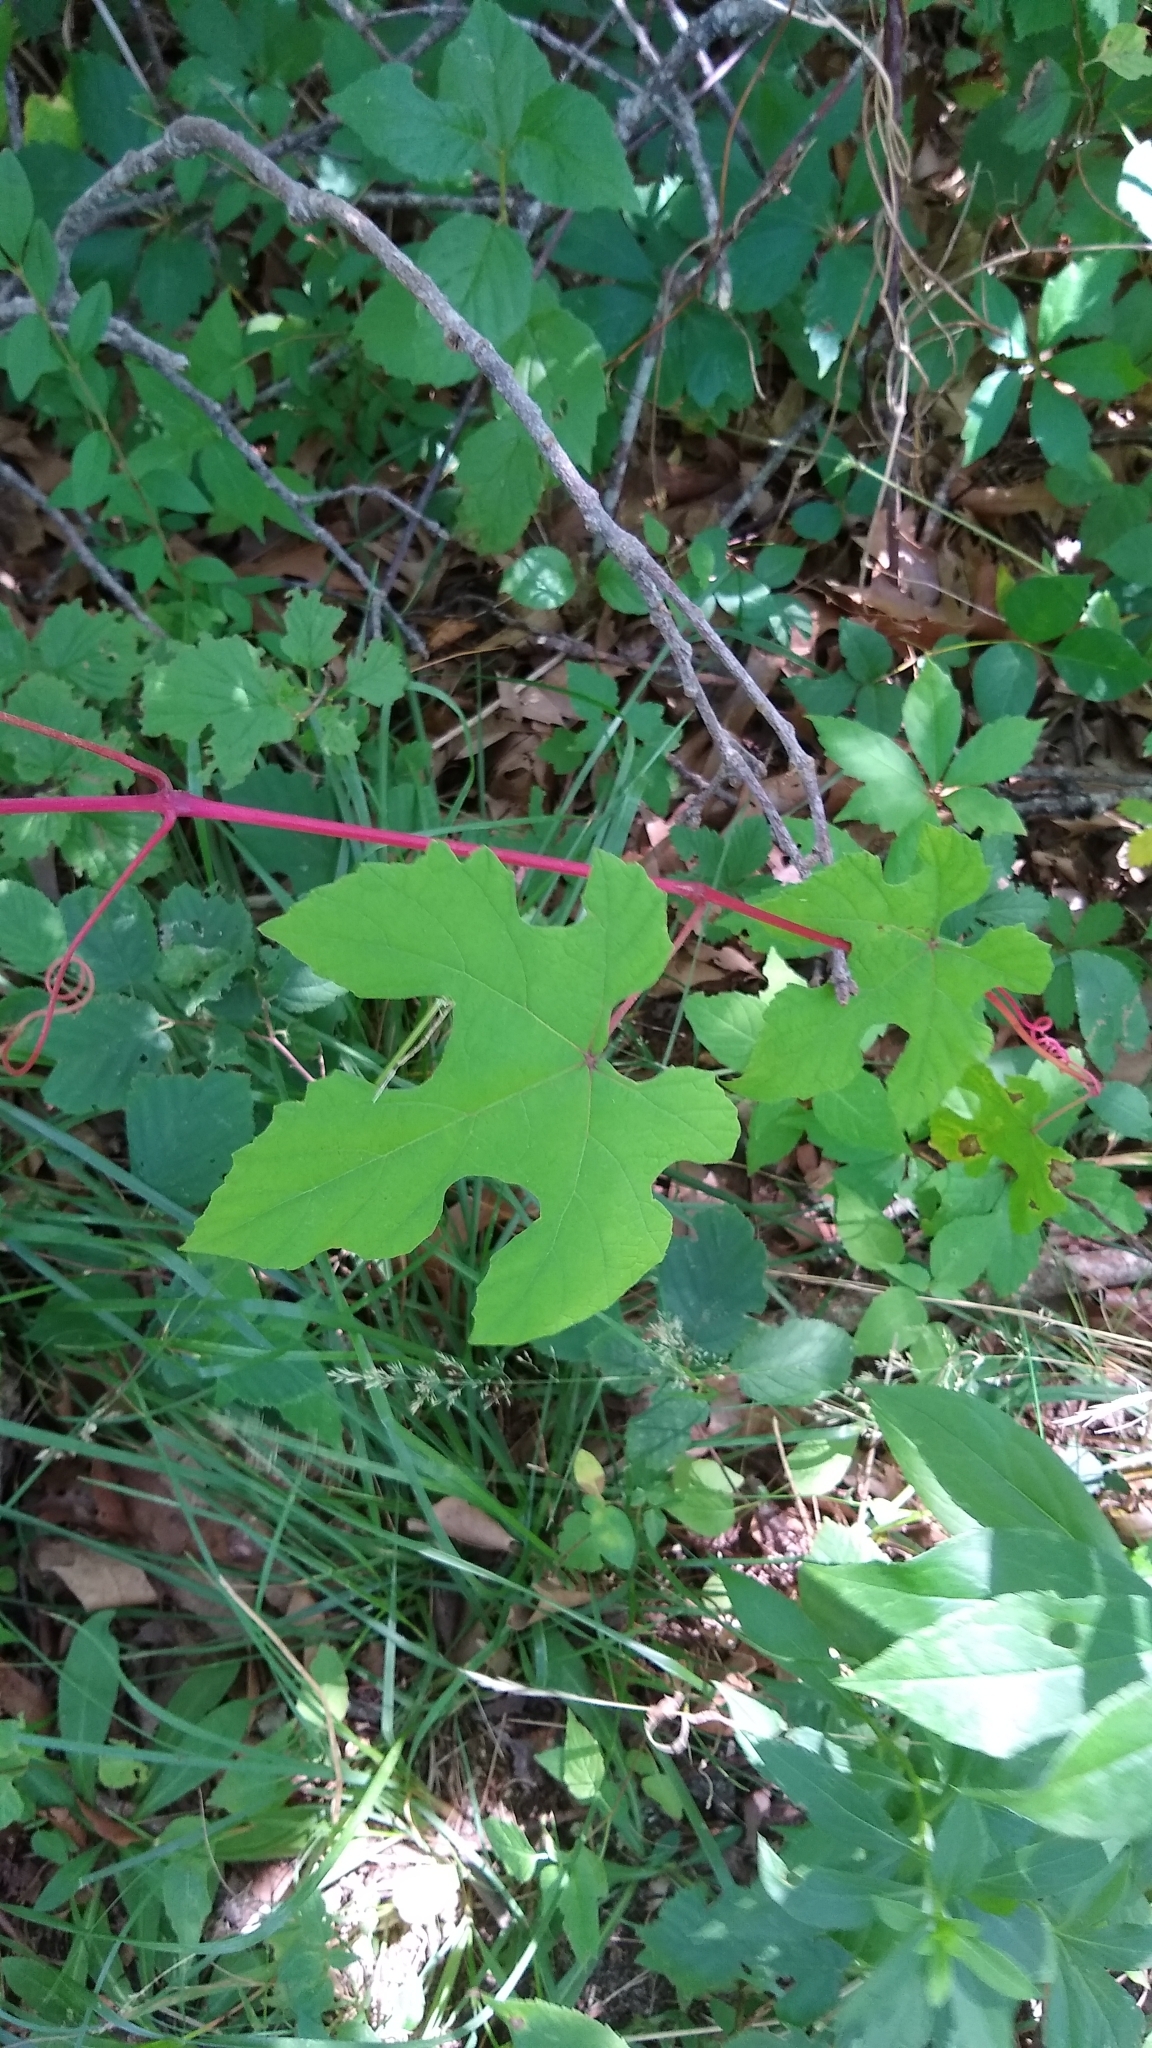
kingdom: Plantae
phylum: Tracheophyta
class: Magnoliopsida
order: Vitales
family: Vitaceae
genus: Ampelopsis
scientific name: Ampelopsis glandulosa
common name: Amur peppervine
